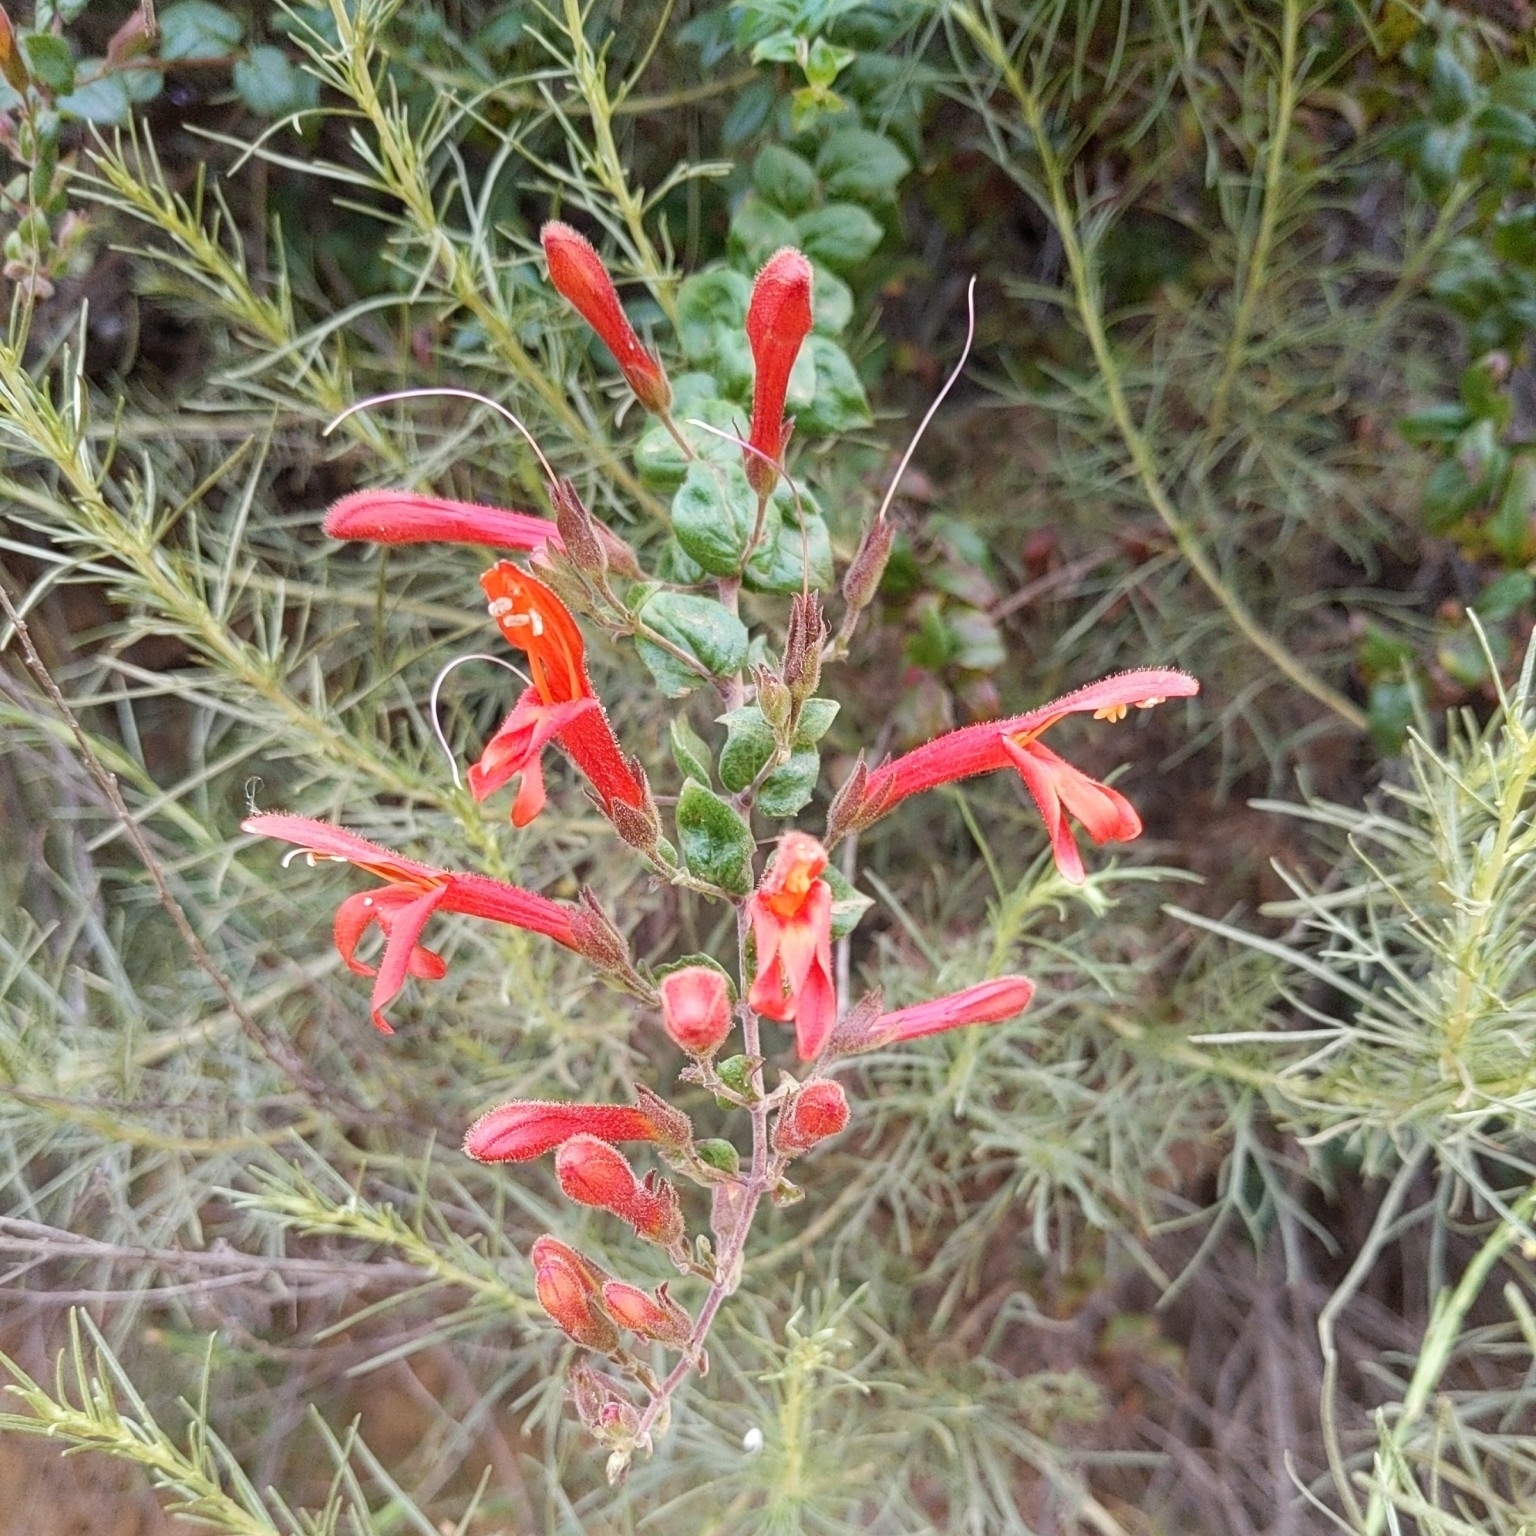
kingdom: Plantae
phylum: Tracheophyta
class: Magnoliopsida
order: Lamiales
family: Plantaginaceae
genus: Keckiella
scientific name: Keckiella cordifolia
